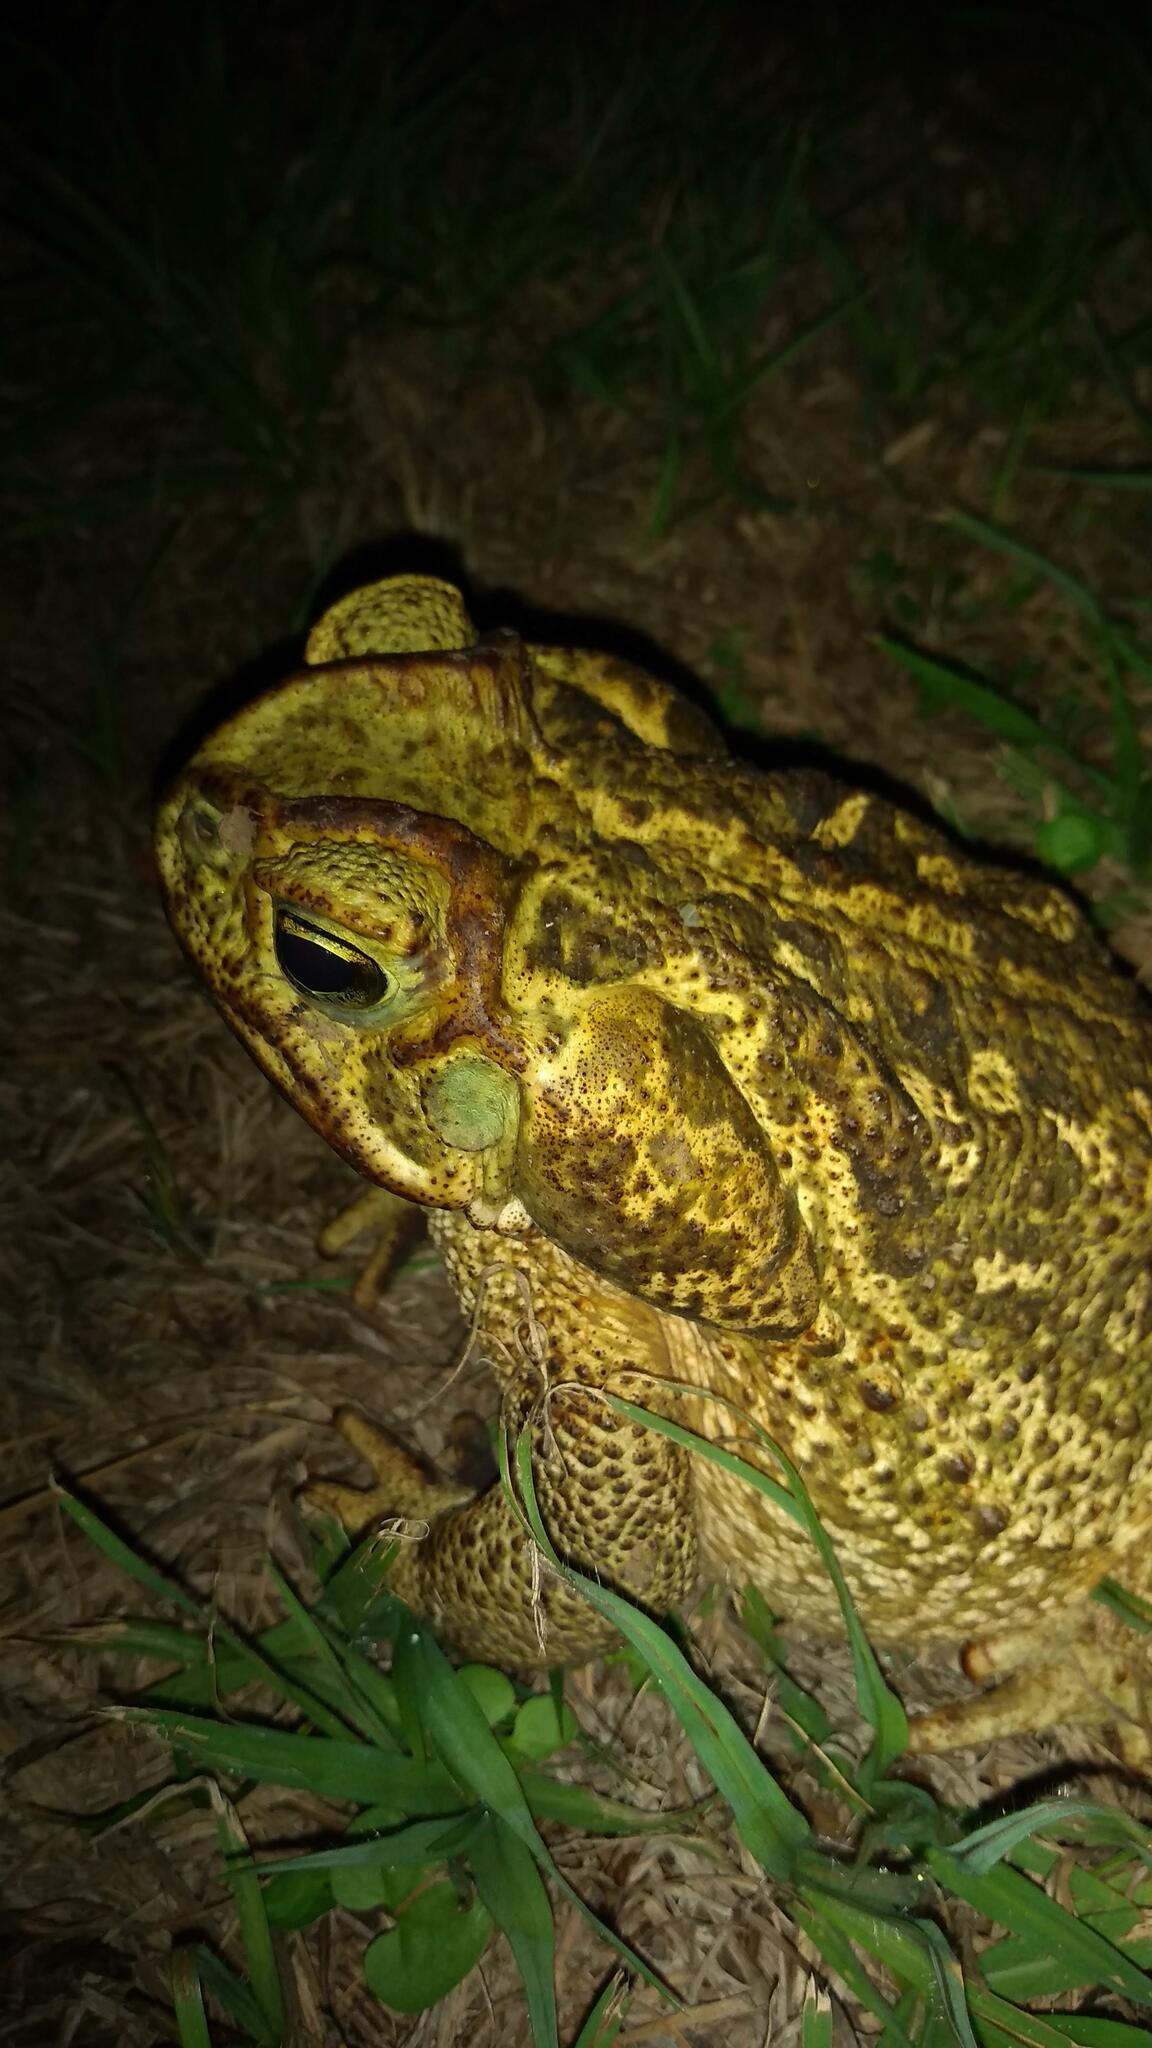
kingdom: Animalia
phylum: Chordata
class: Amphibia
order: Anura
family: Bufonidae
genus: Rhinella
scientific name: Rhinella diptycha
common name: Cope's toad
